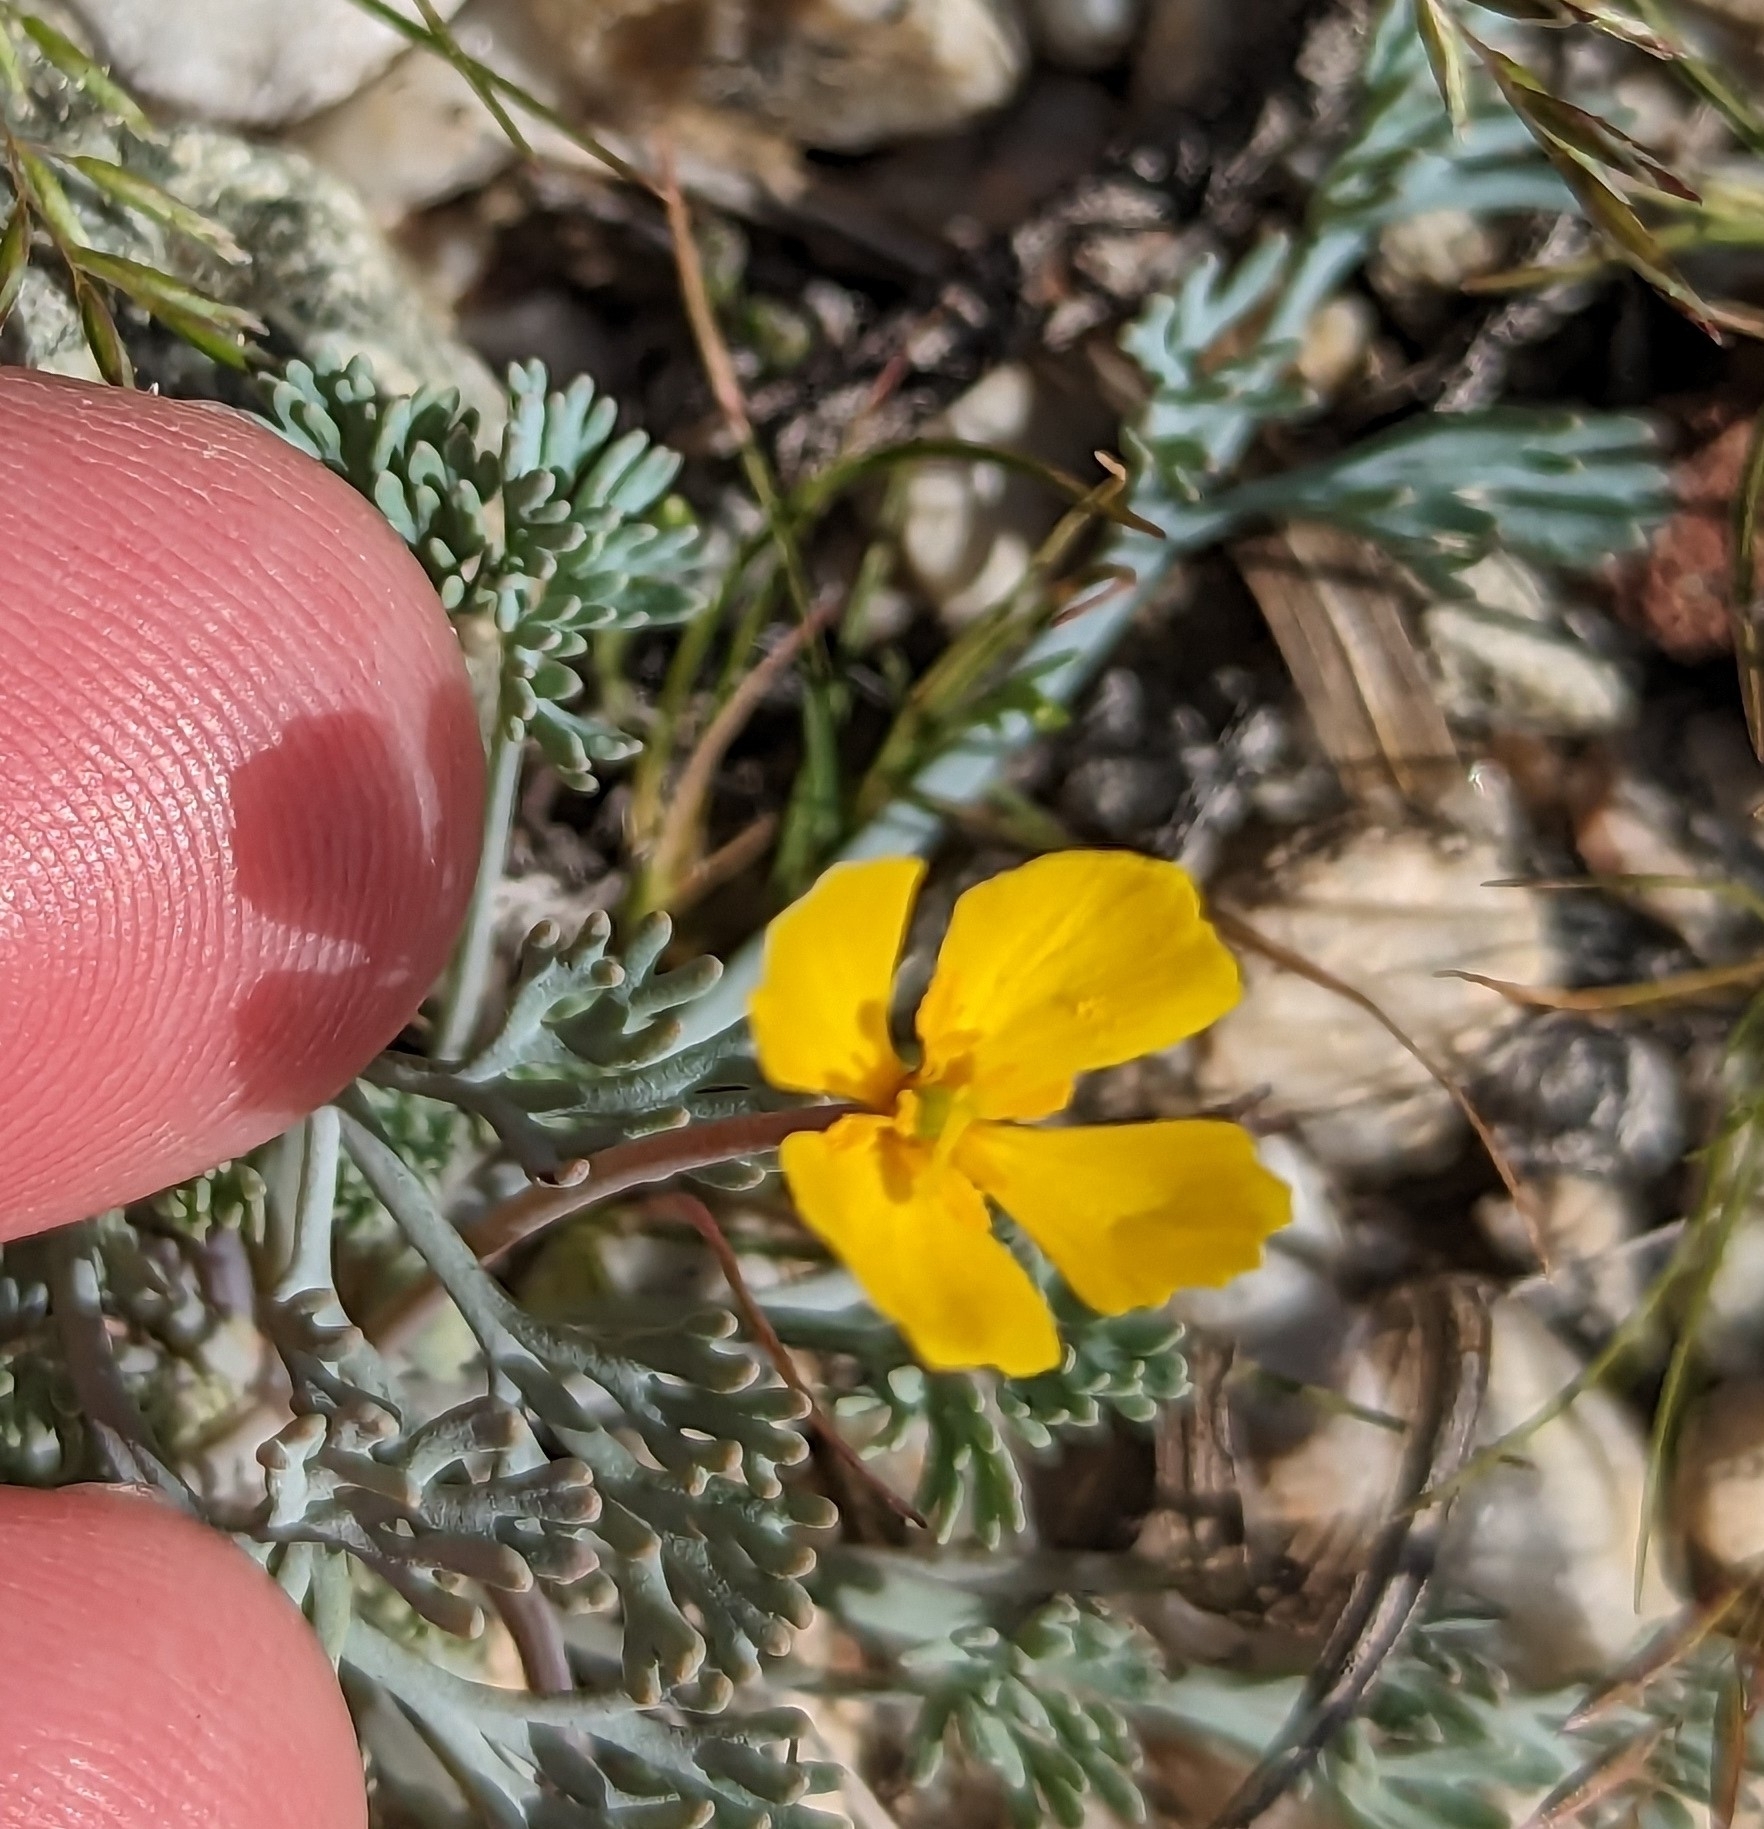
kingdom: Plantae
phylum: Tracheophyta
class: Magnoliopsida
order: Ranunculales
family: Papaveraceae
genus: Eschscholzia
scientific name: Eschscholzia minutiflora
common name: Small-flower california-poppy
